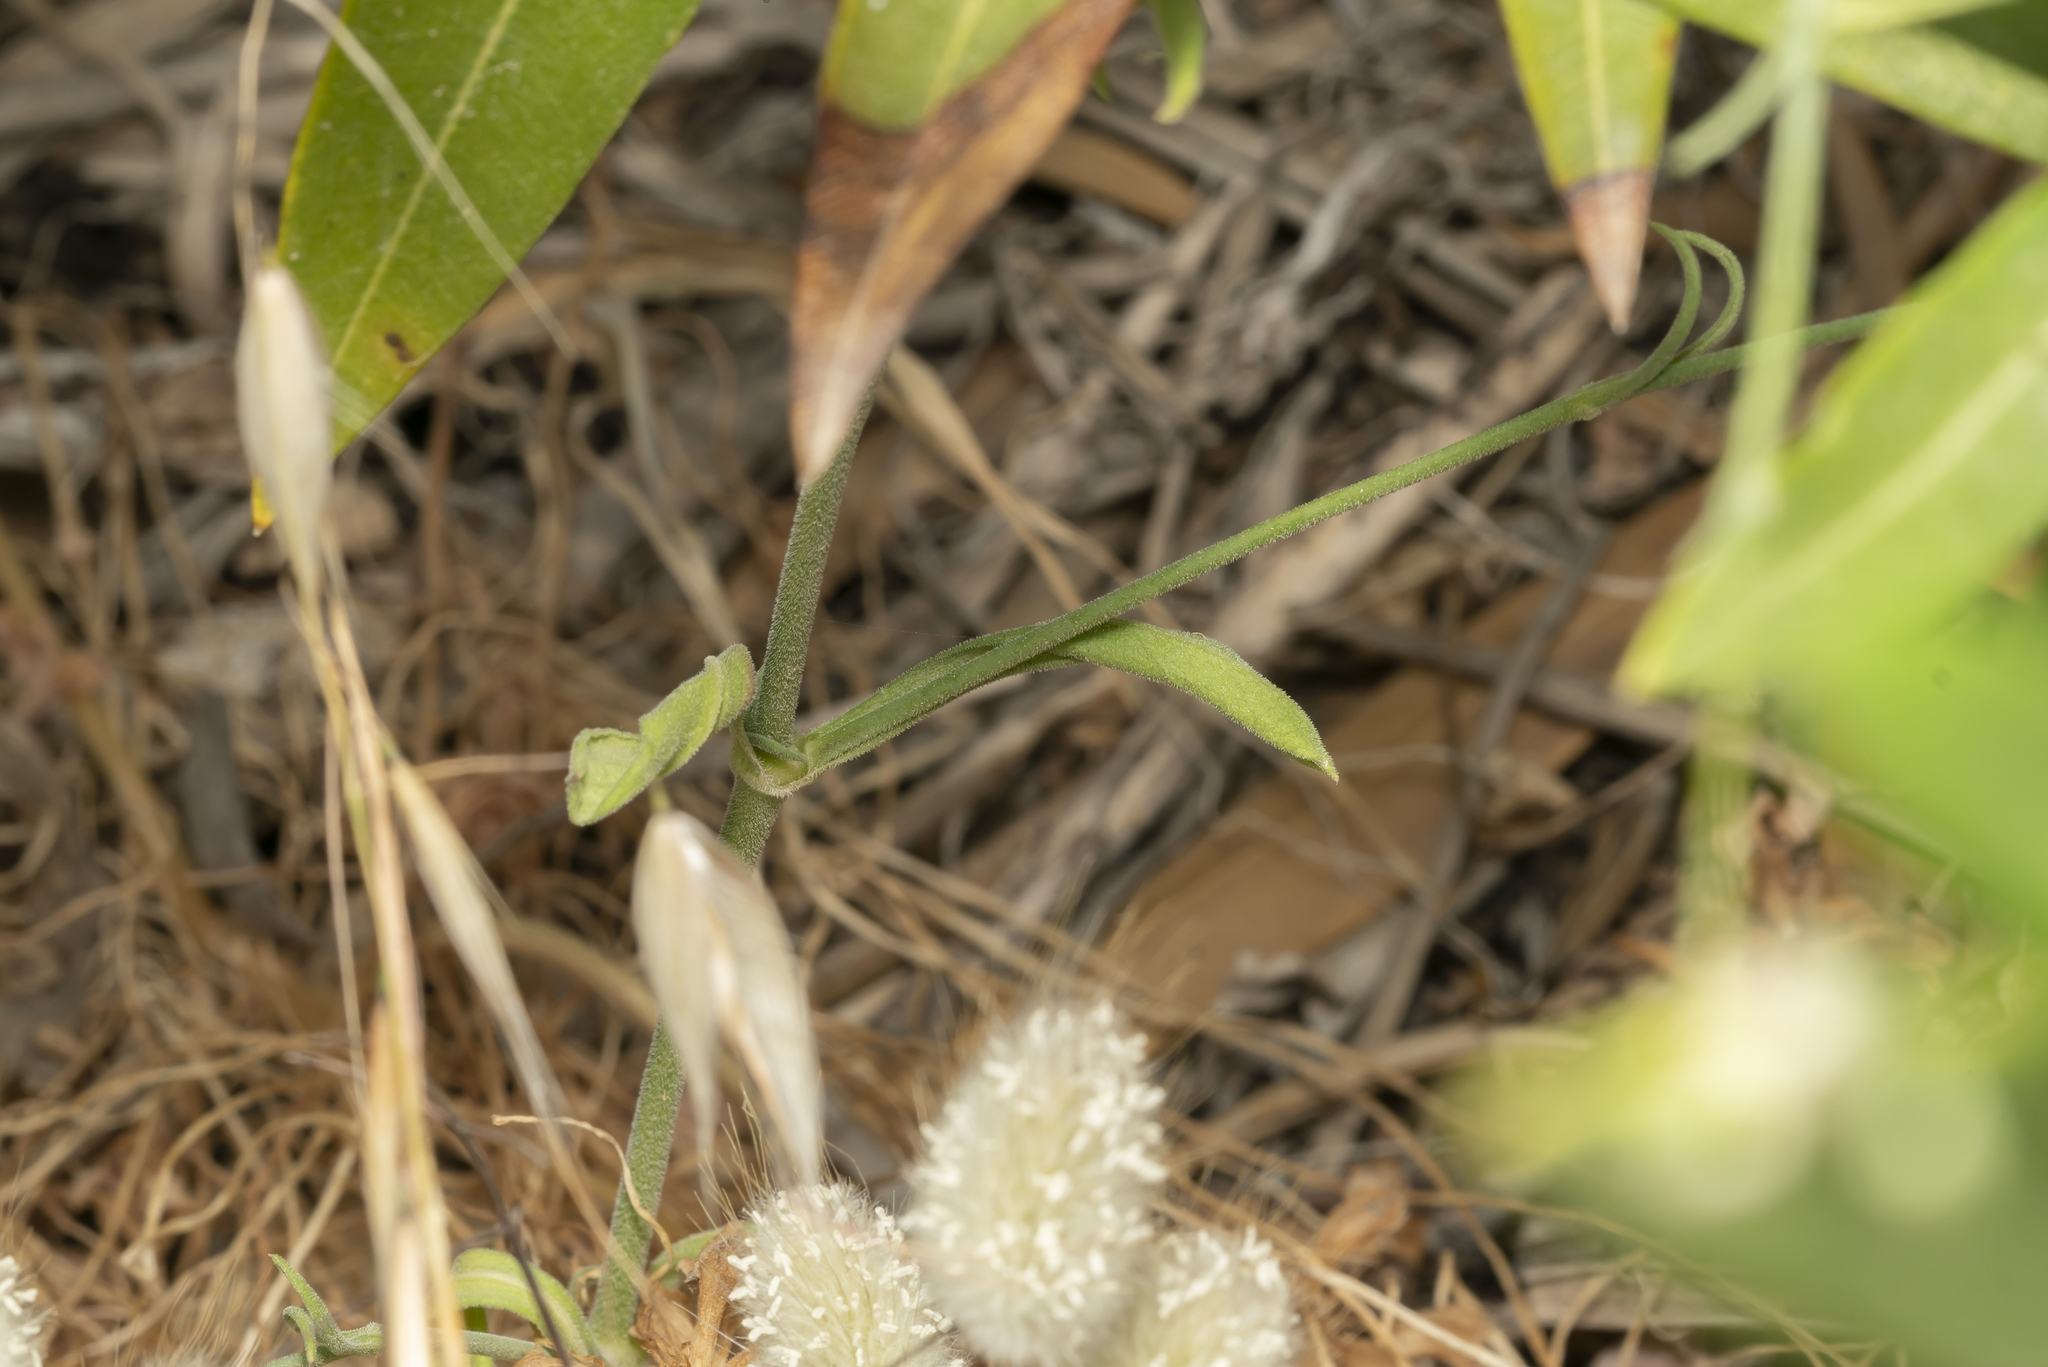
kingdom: Plantae
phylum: Tracheophyta
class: Magnoliopsida
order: Caryophyllales
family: Caryophyllaceae
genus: Silene
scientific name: Silene echinospermoides
